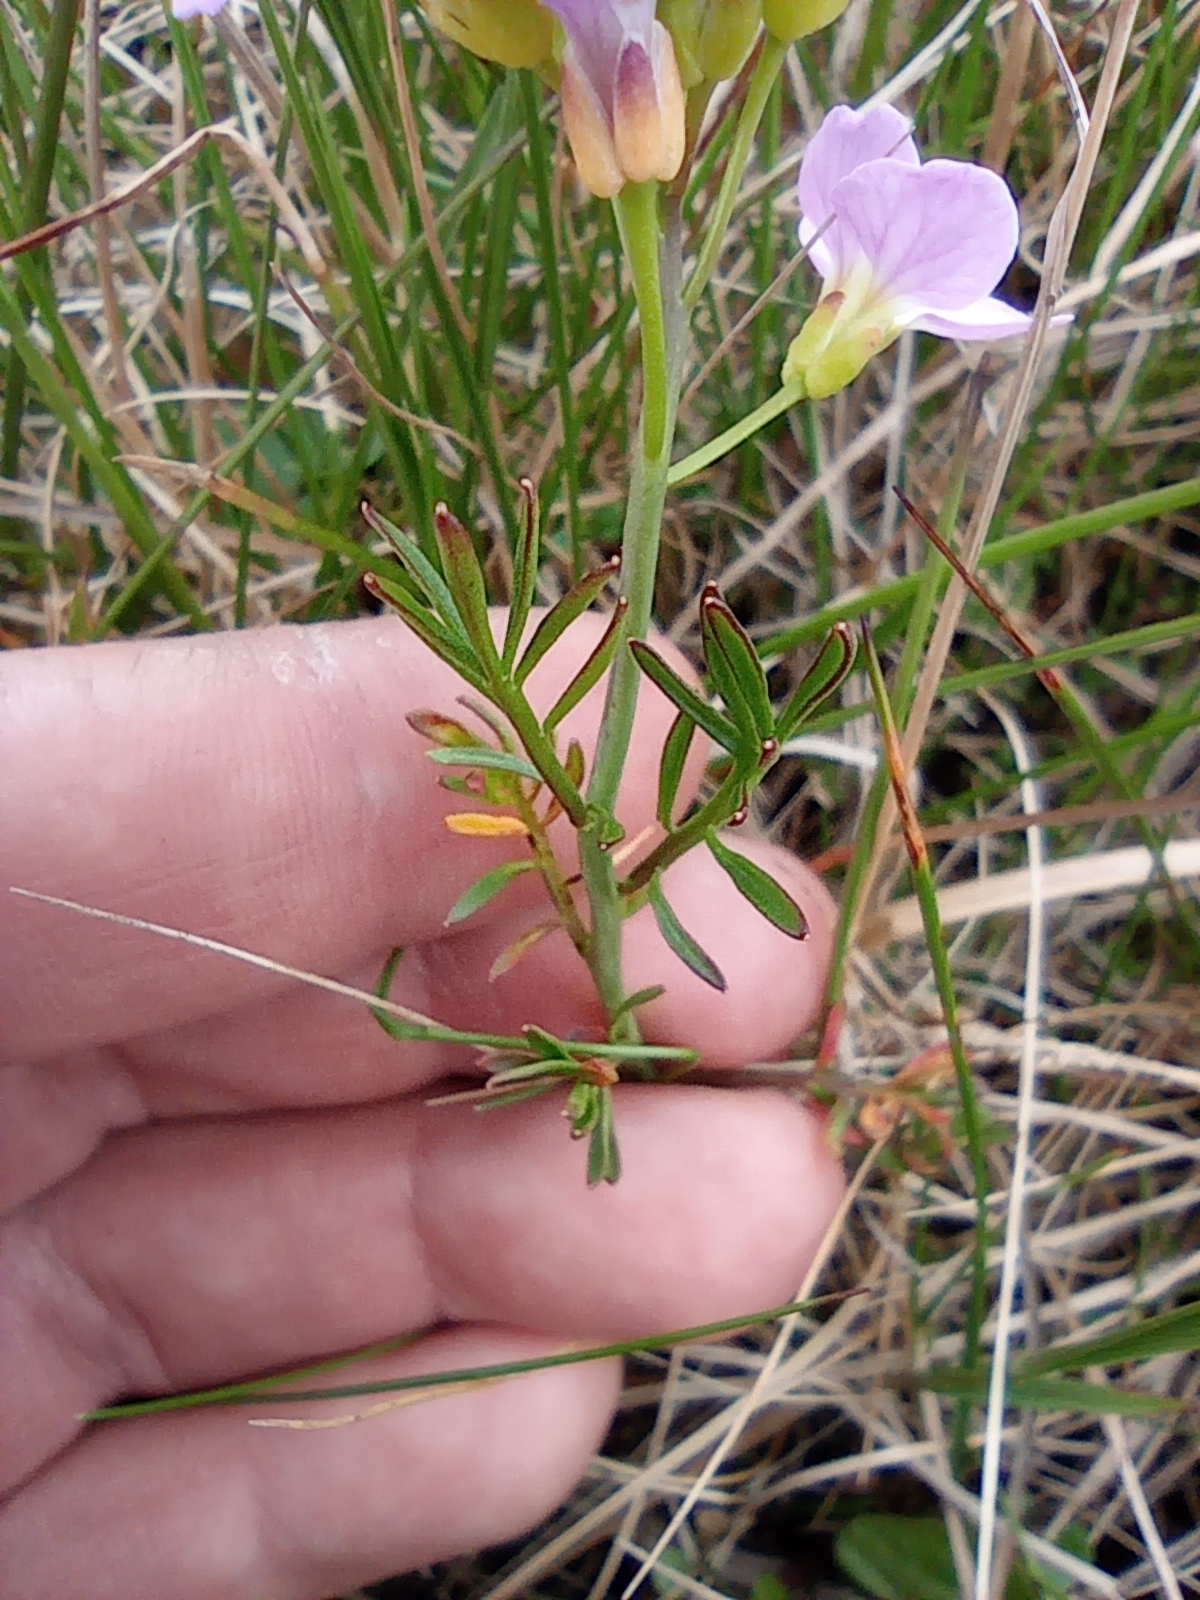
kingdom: Plantae
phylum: Tracheophyta
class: Magnoliopsida
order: Brassicales
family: Brassicaceae
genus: Cardamine
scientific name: Cardamine nymanii
